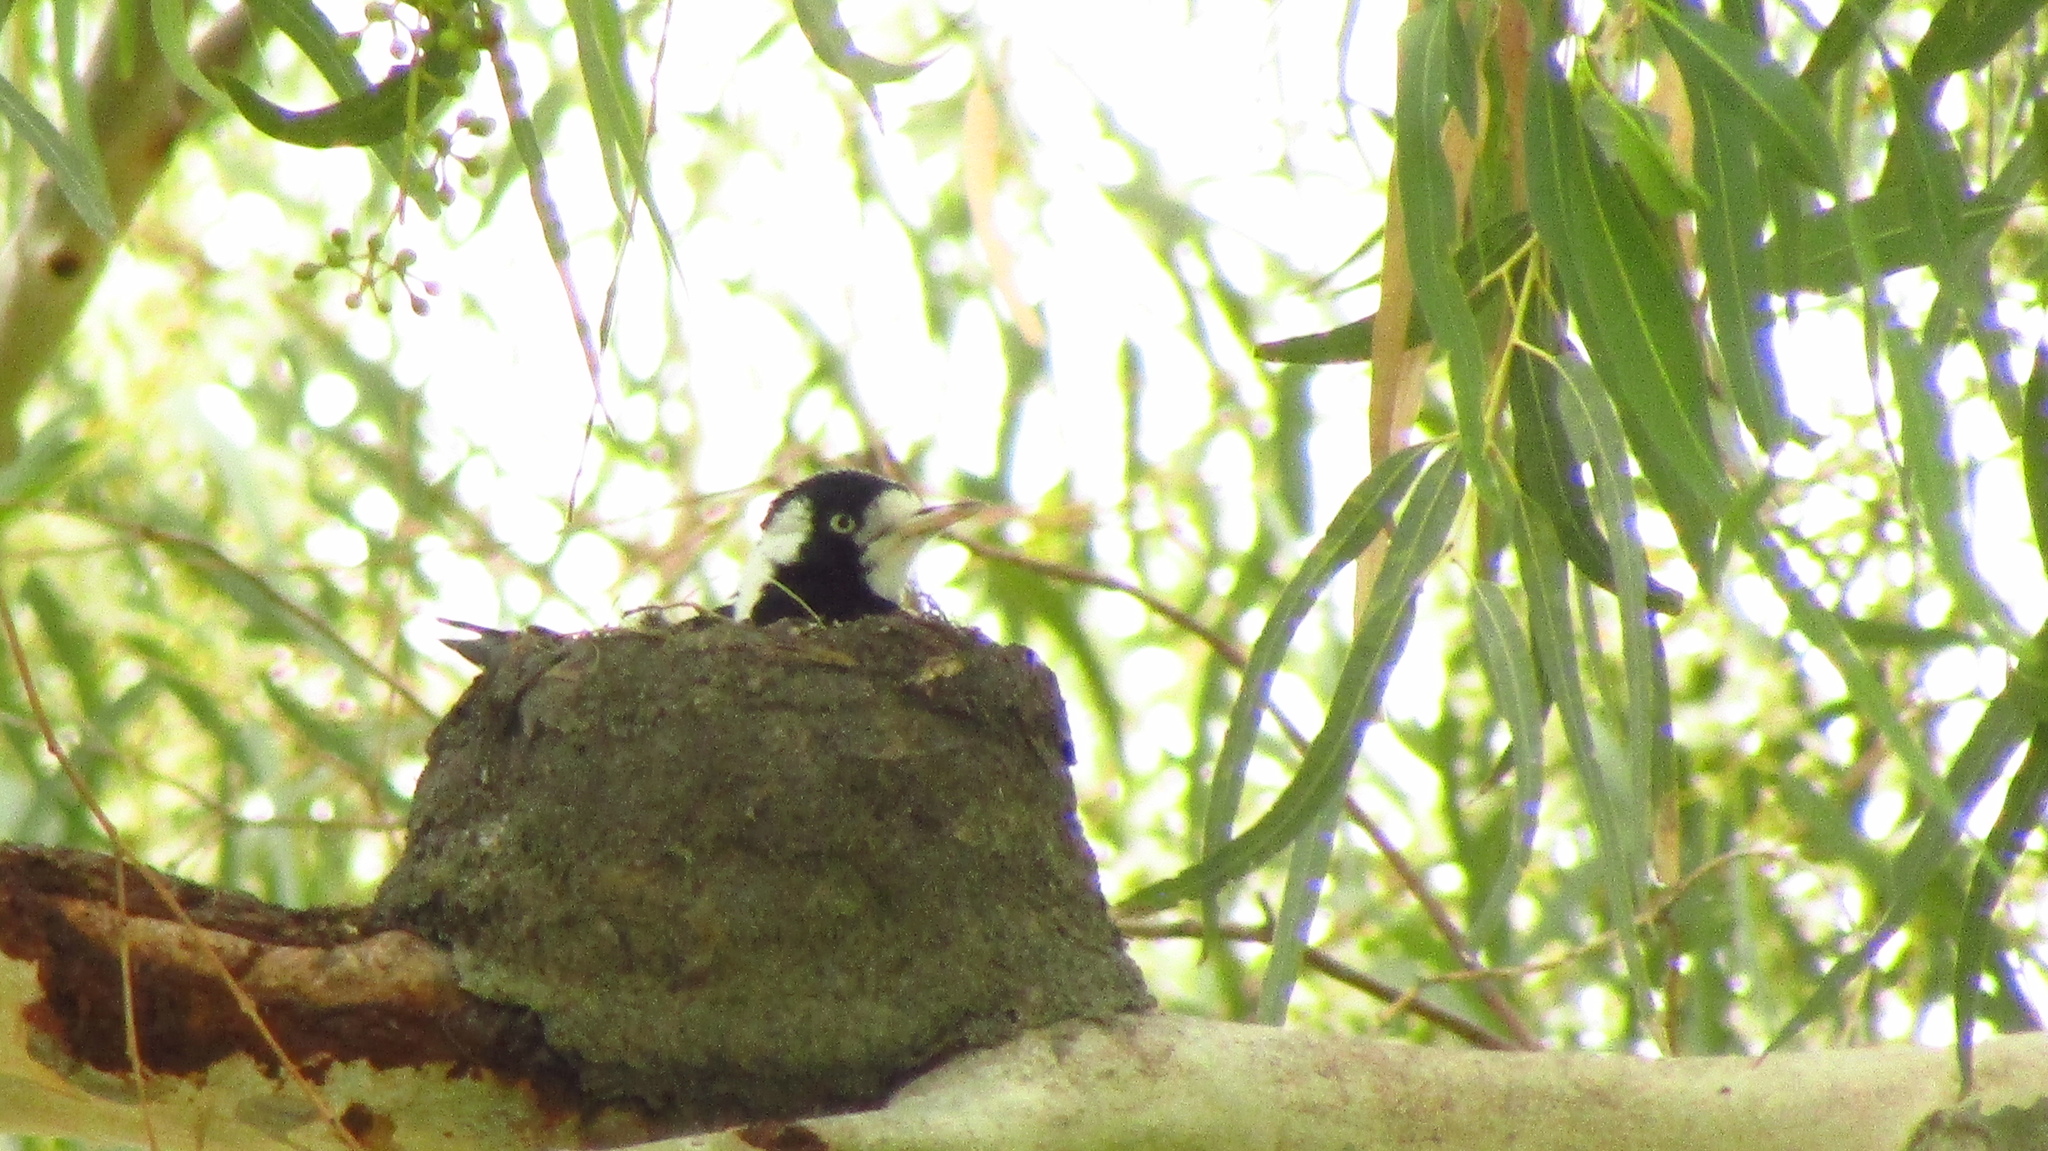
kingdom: Animalia
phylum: Chordata
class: Aves
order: Passeriformes
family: Monarchidae
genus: Grallina
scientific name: Grallina cyanoleuca
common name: Magpie-lark
